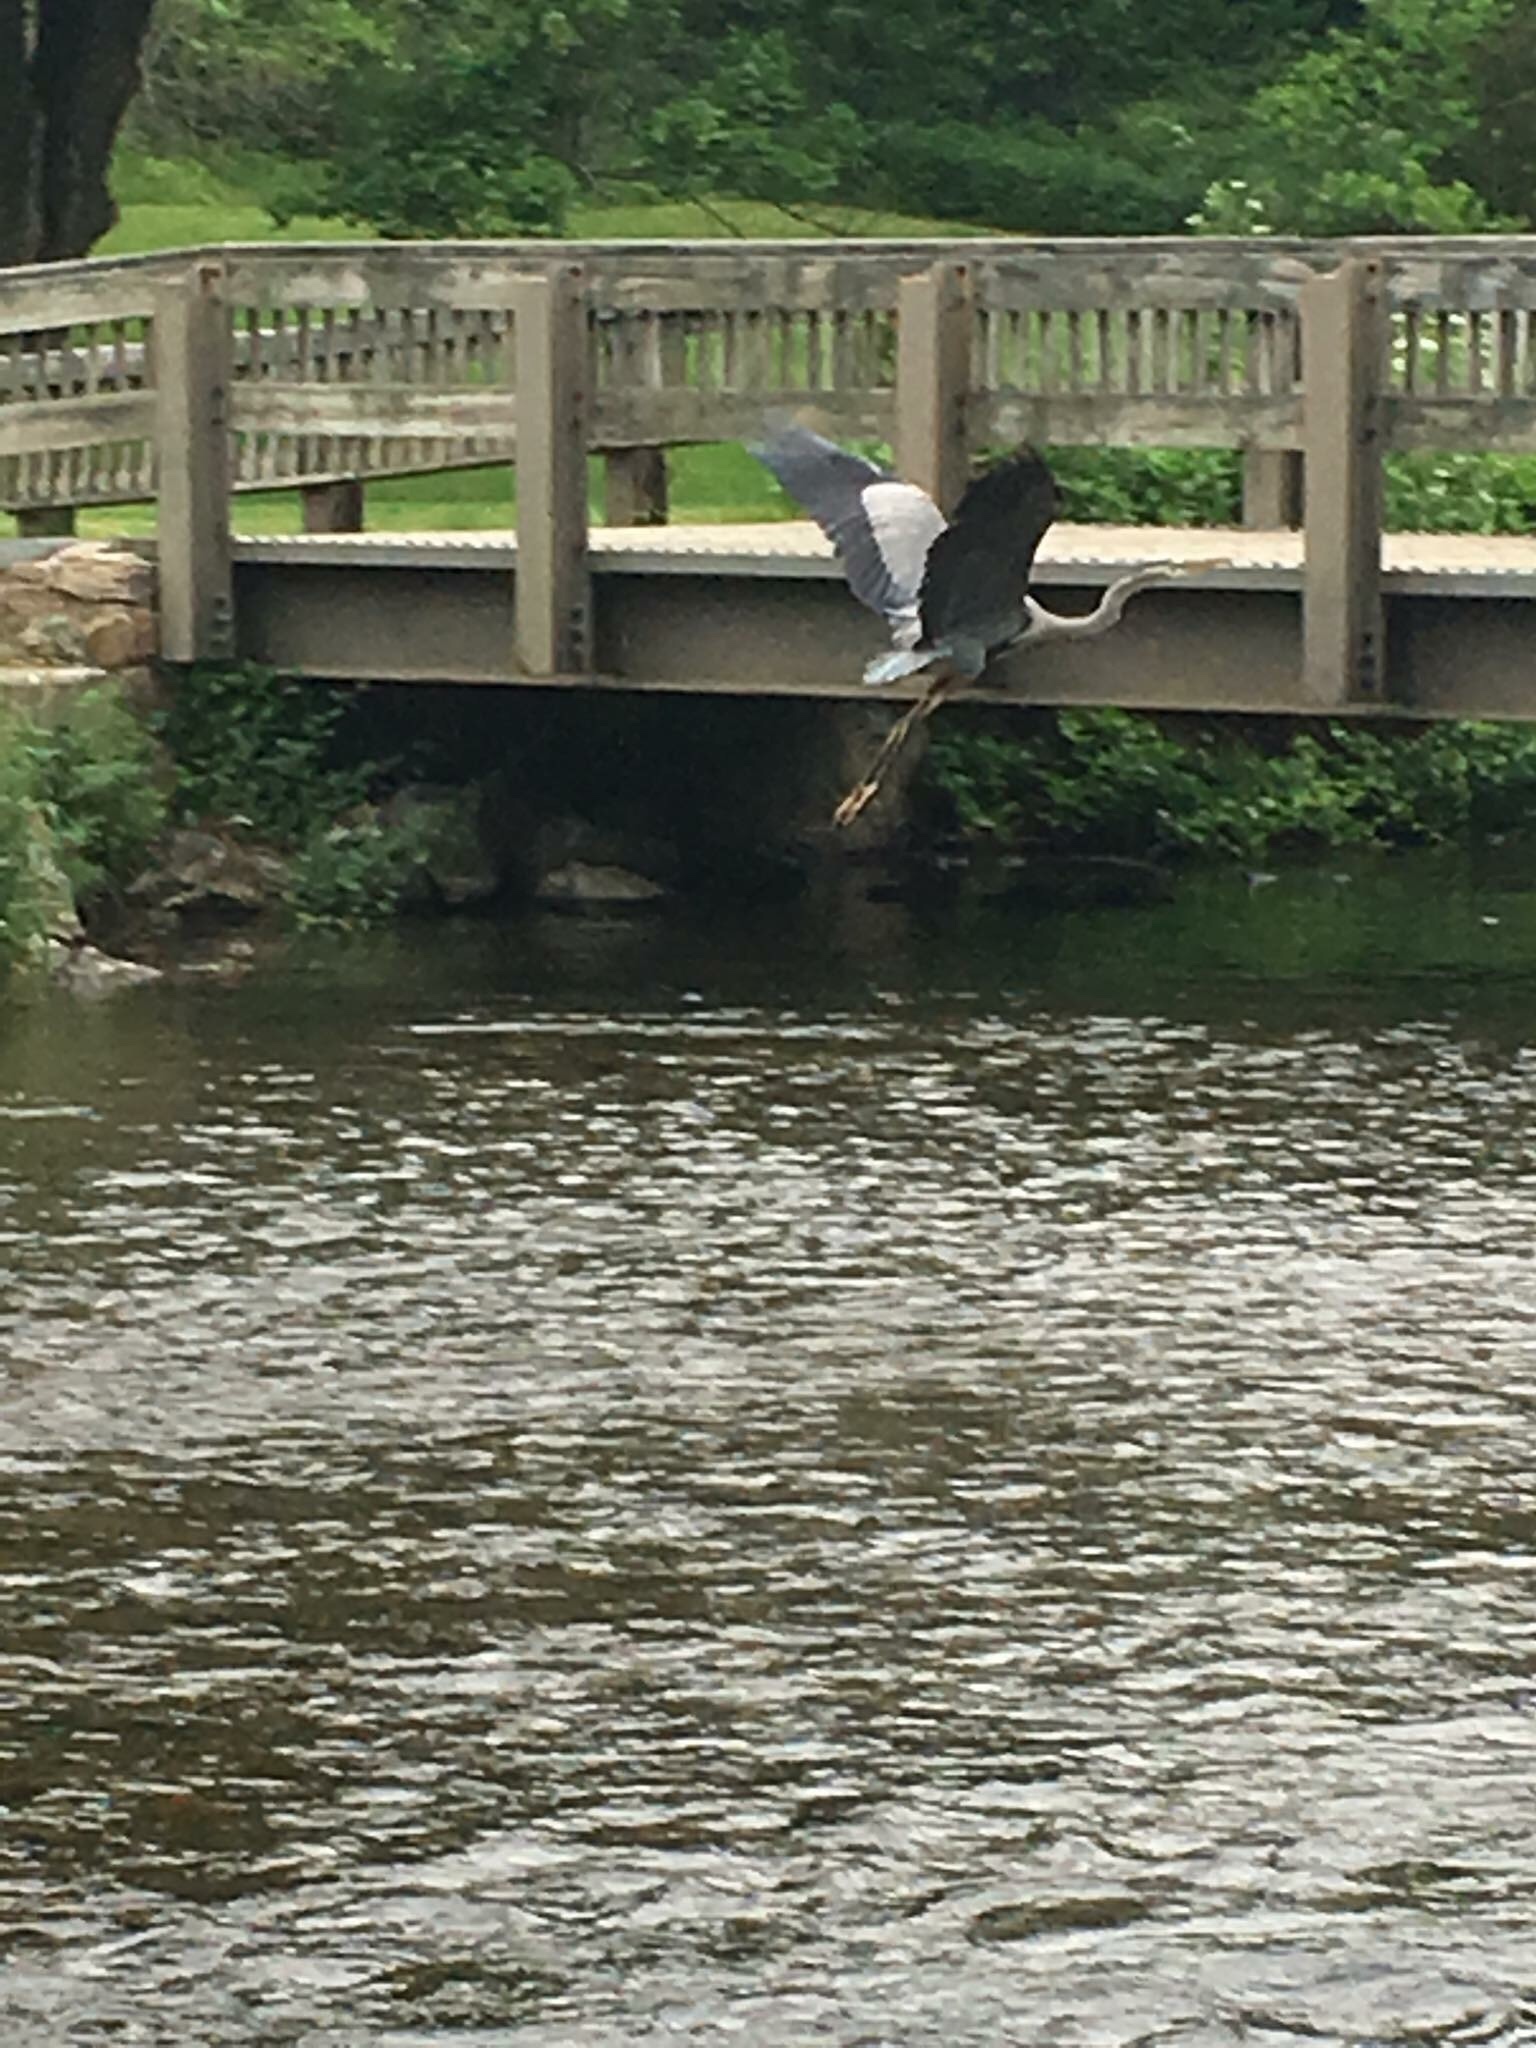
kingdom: Animalia
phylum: Chordata
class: Aves
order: Pelecaniformes
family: Ardeidae
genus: Ardea
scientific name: Ardea herodias
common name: Great blue heron
